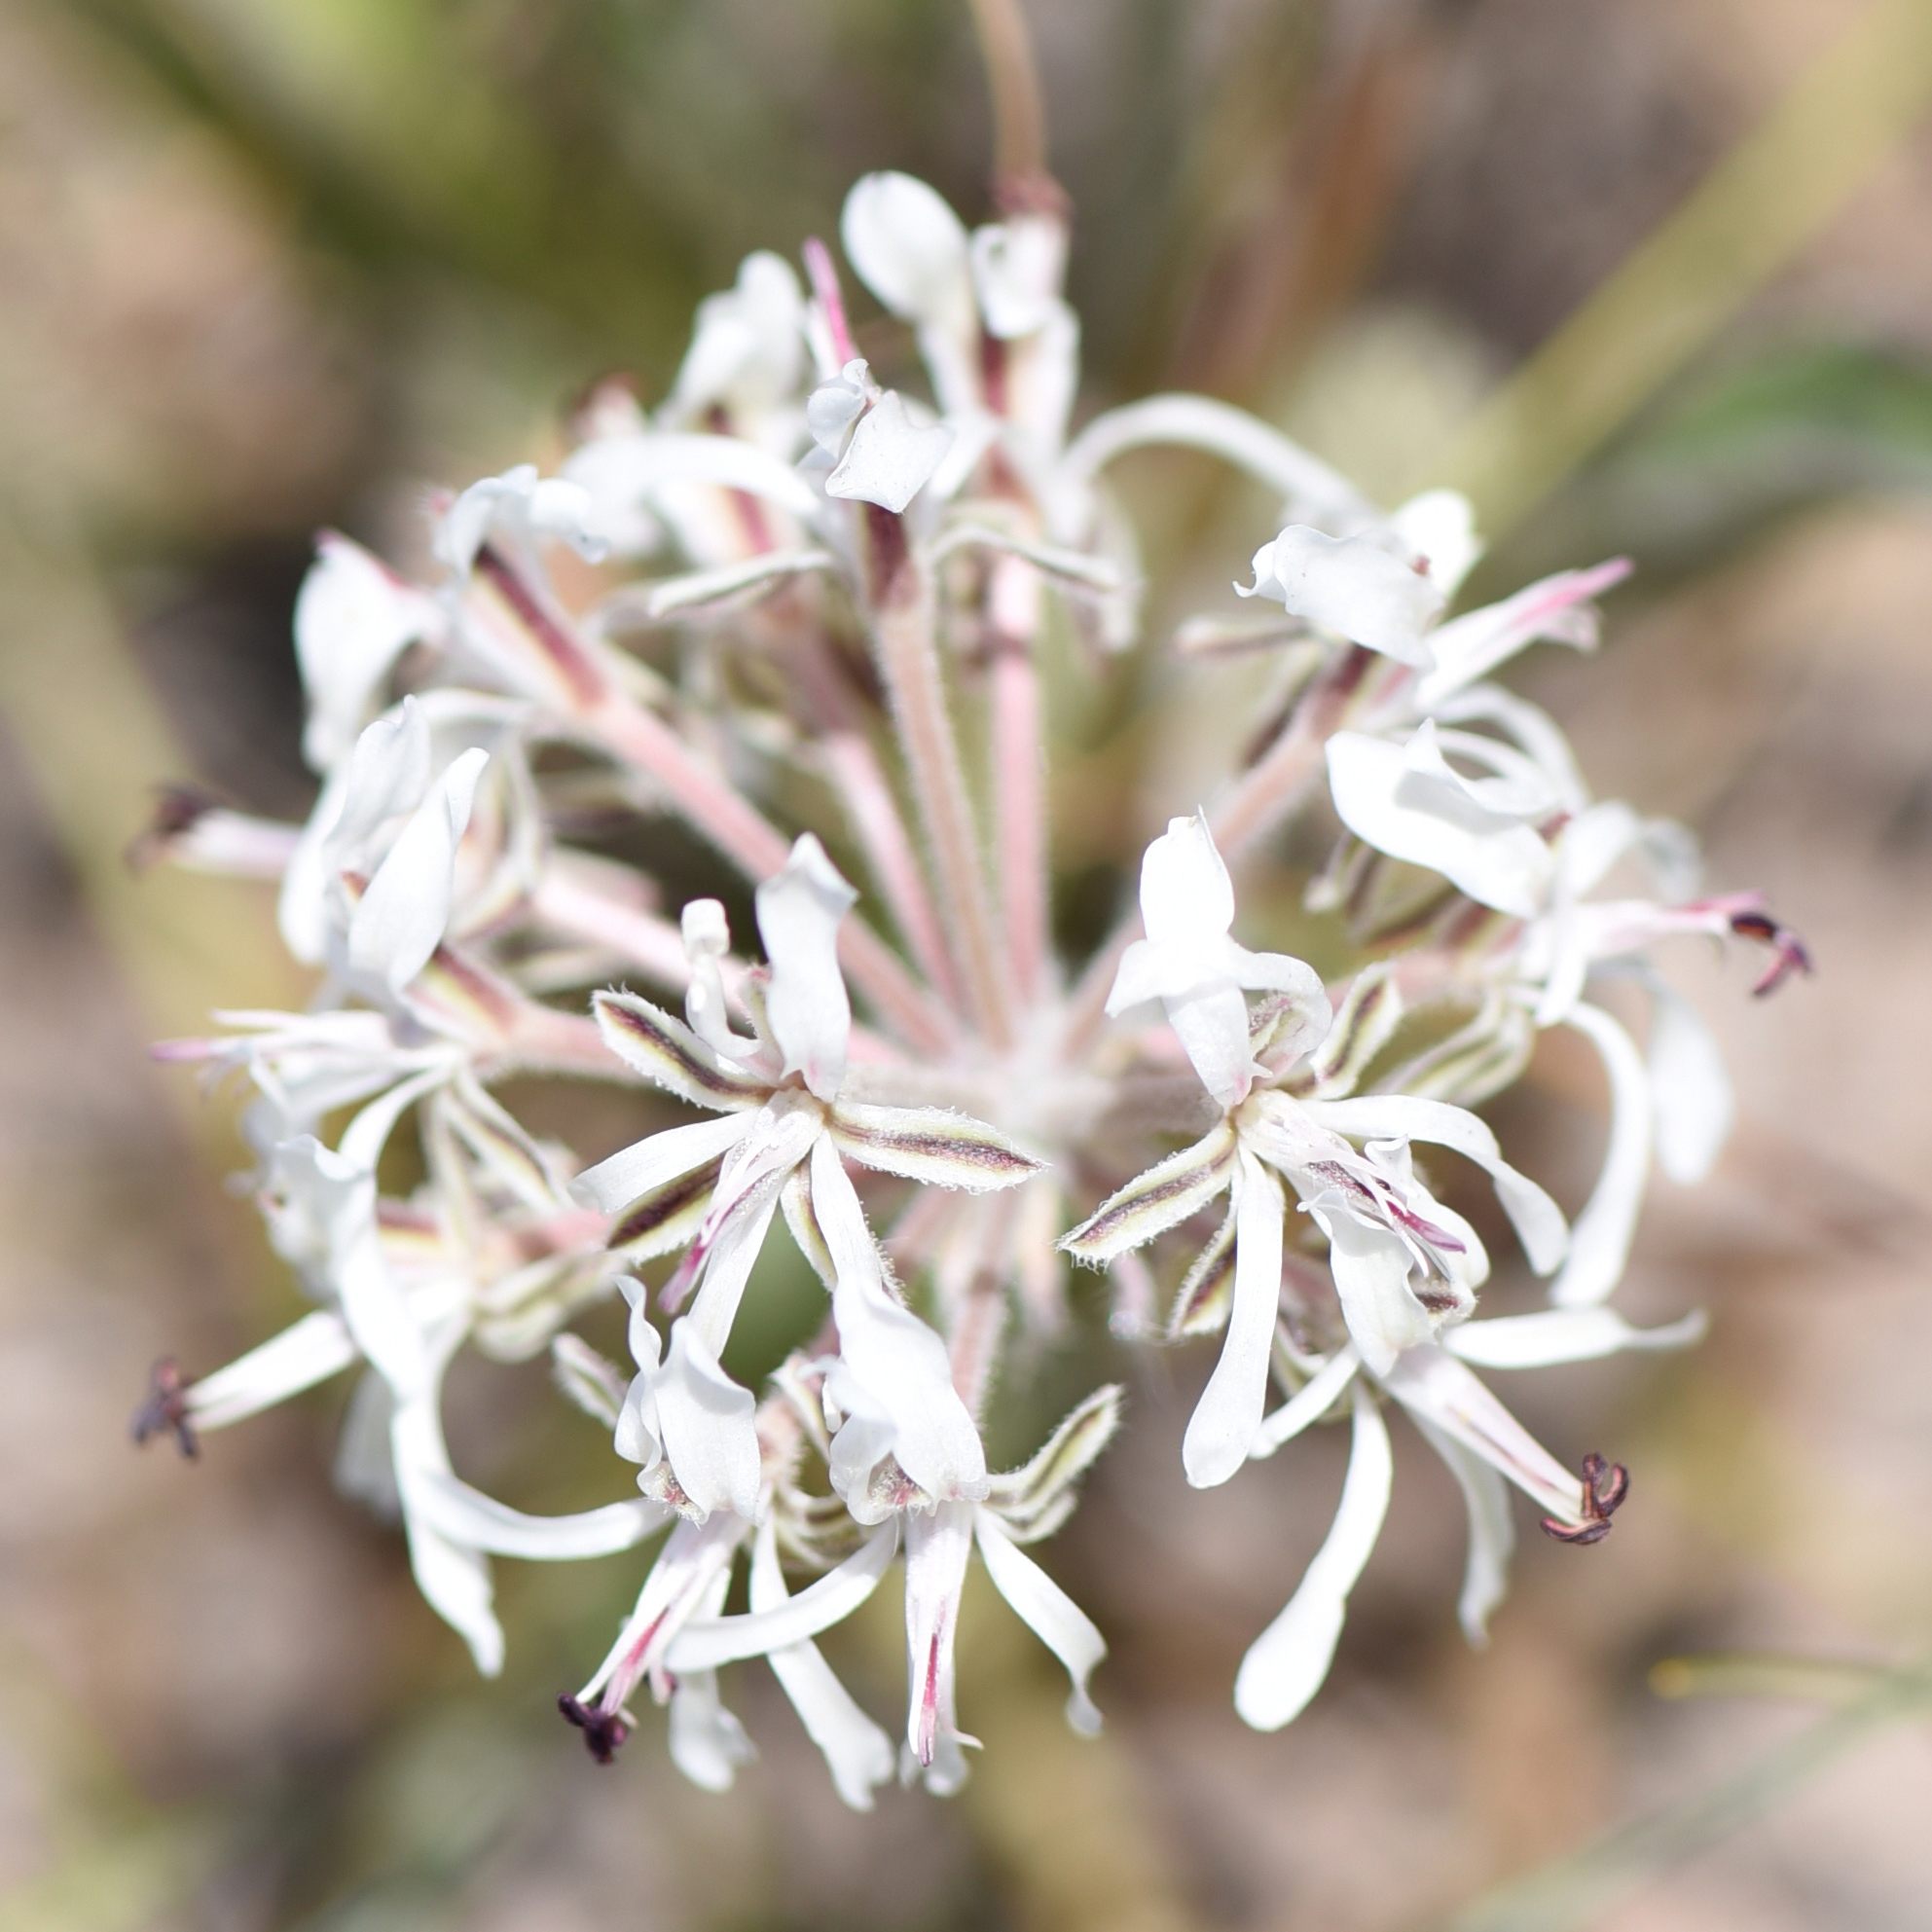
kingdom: Plantae
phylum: Tracheophyta
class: Magnoliopsida
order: Geraniales
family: Geraniaceae
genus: Pelargonium
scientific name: Pelargonium auritum
